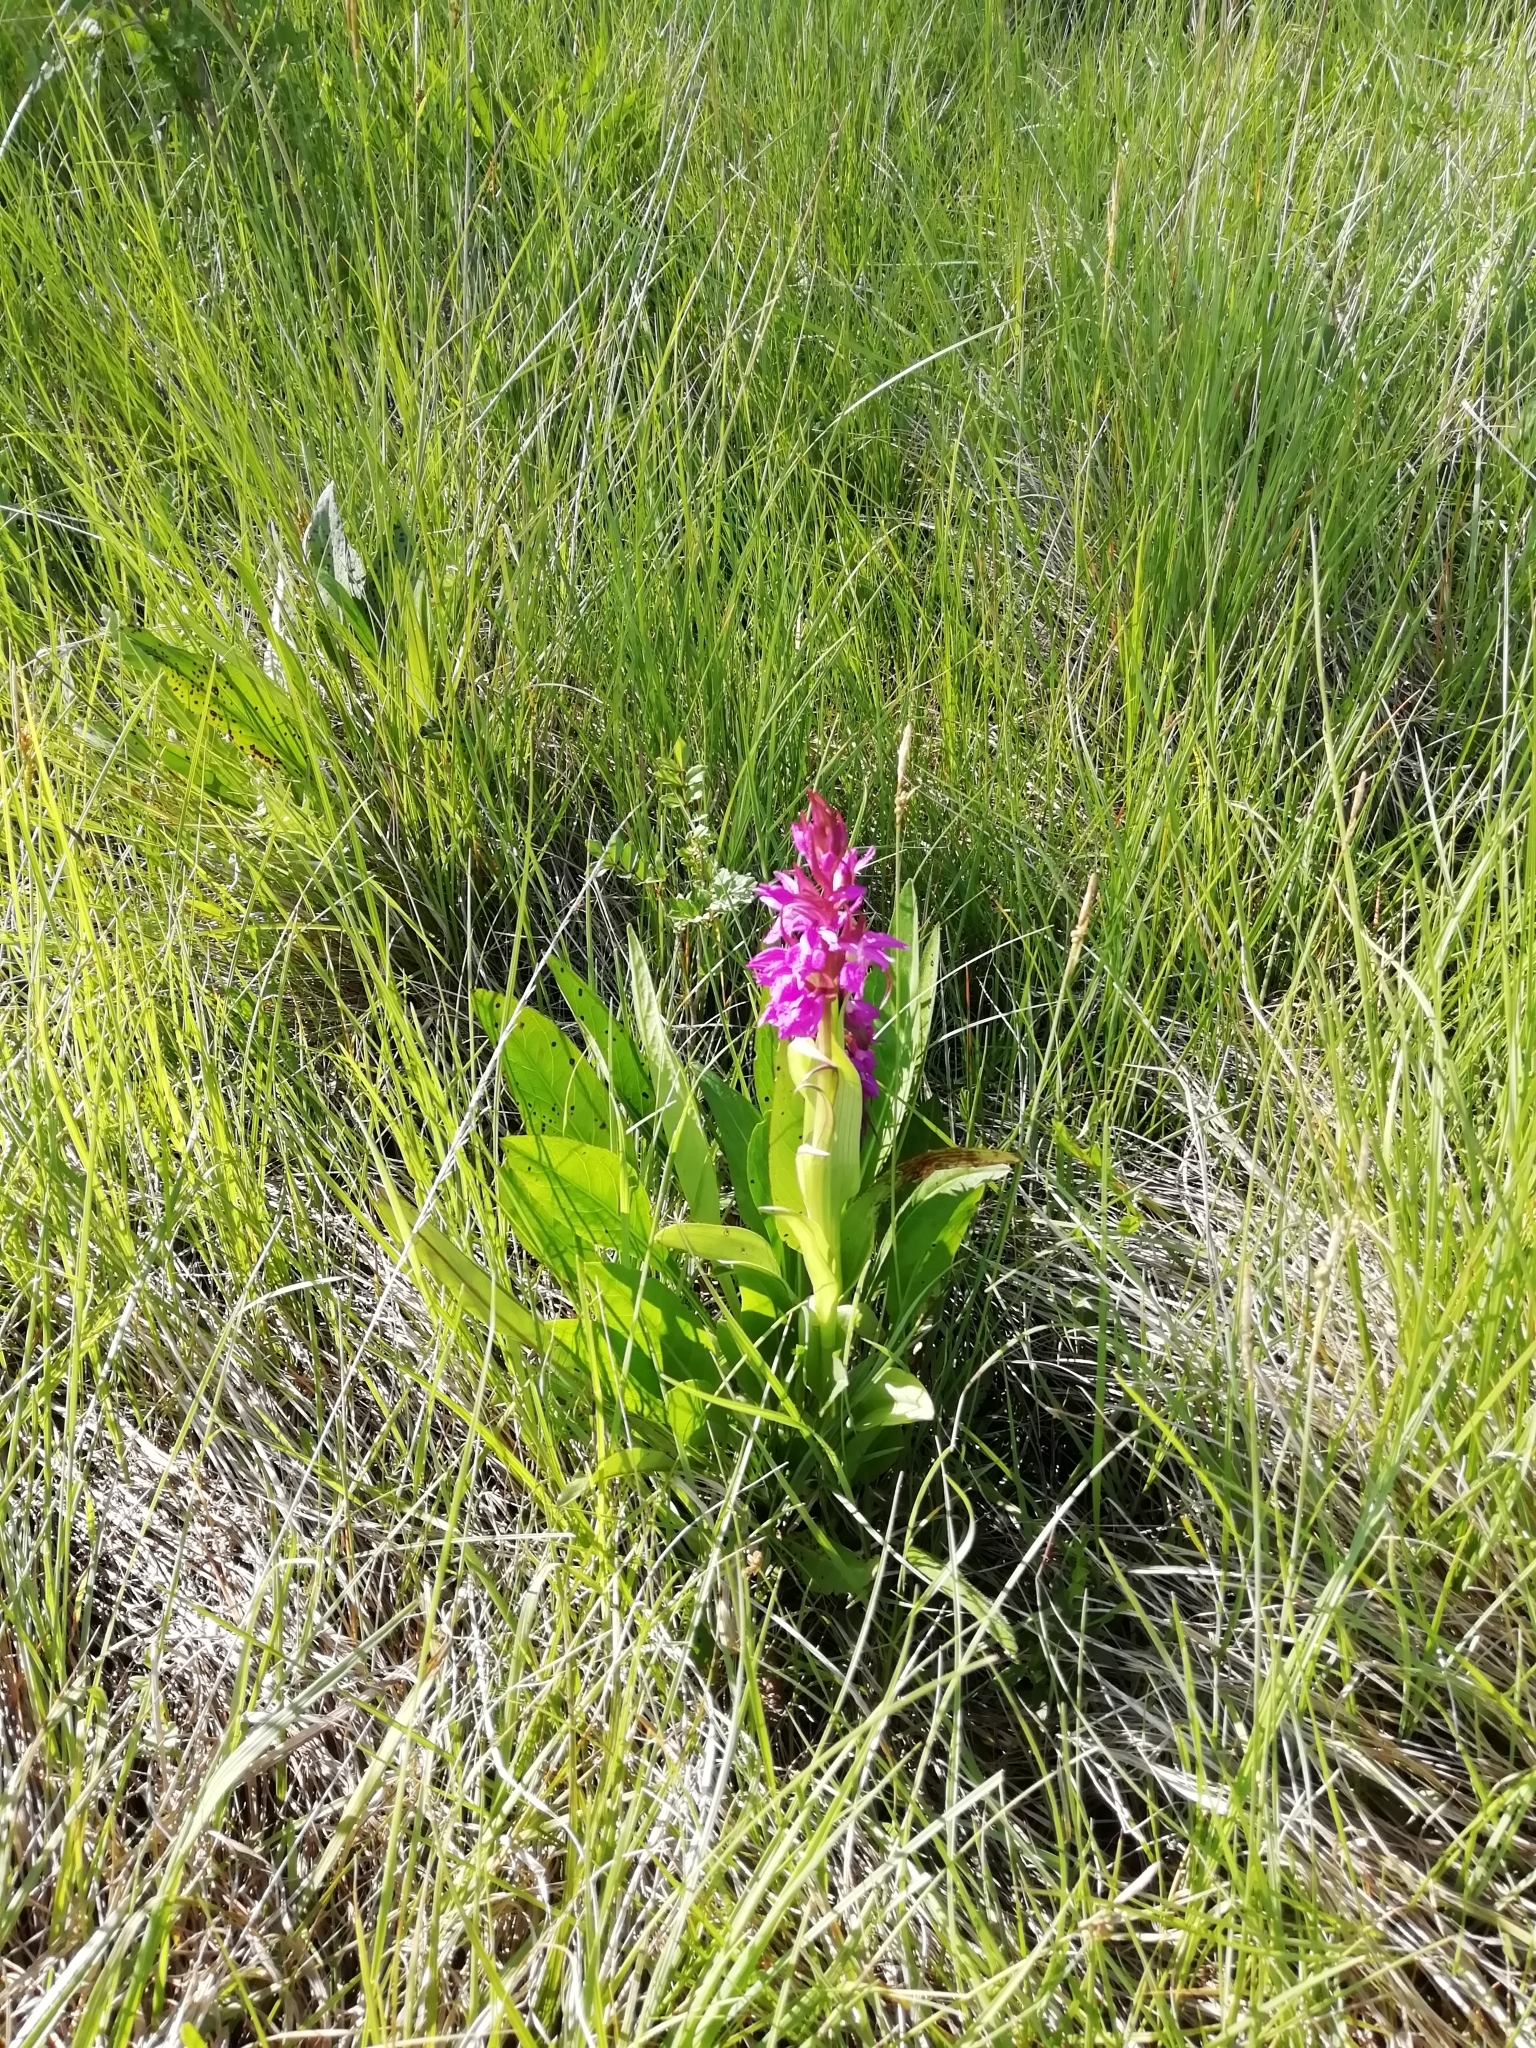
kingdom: Plantae
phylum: Tracheophyta
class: Liliopsida
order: Asparagales
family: Orchidaceae
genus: Dactylorhiza
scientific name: Dactylorhiza elata
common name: Stately dactylorhiza
